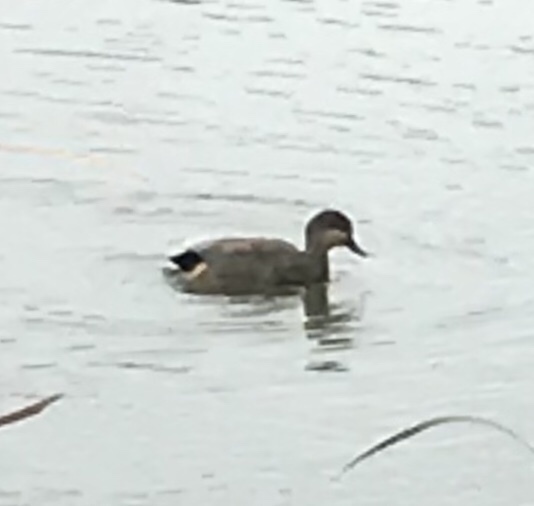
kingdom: Animalia
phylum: Chordata
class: Aves
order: Anseriformes
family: Anatidae
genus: Mareca
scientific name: Mareca strepera
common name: Gadwall
